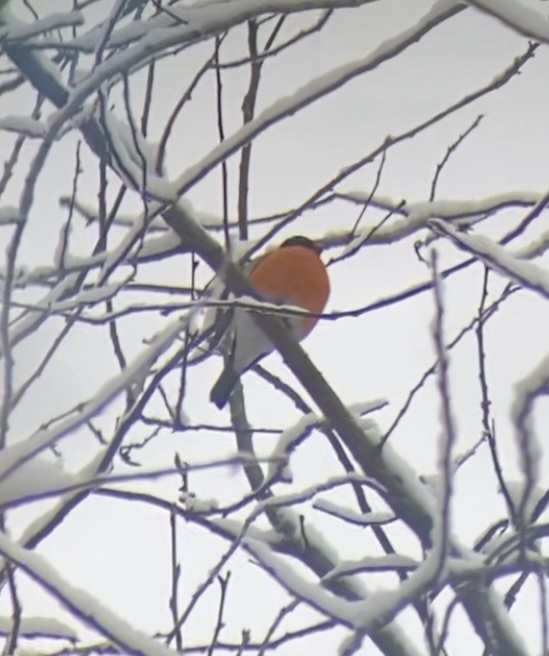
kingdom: Animalia
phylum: Chordata
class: Aves
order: Passeriformes
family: Fringillidae
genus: Pyrrhula
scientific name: Pyrrhula pyrrhula
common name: Eurasian bullfinch
